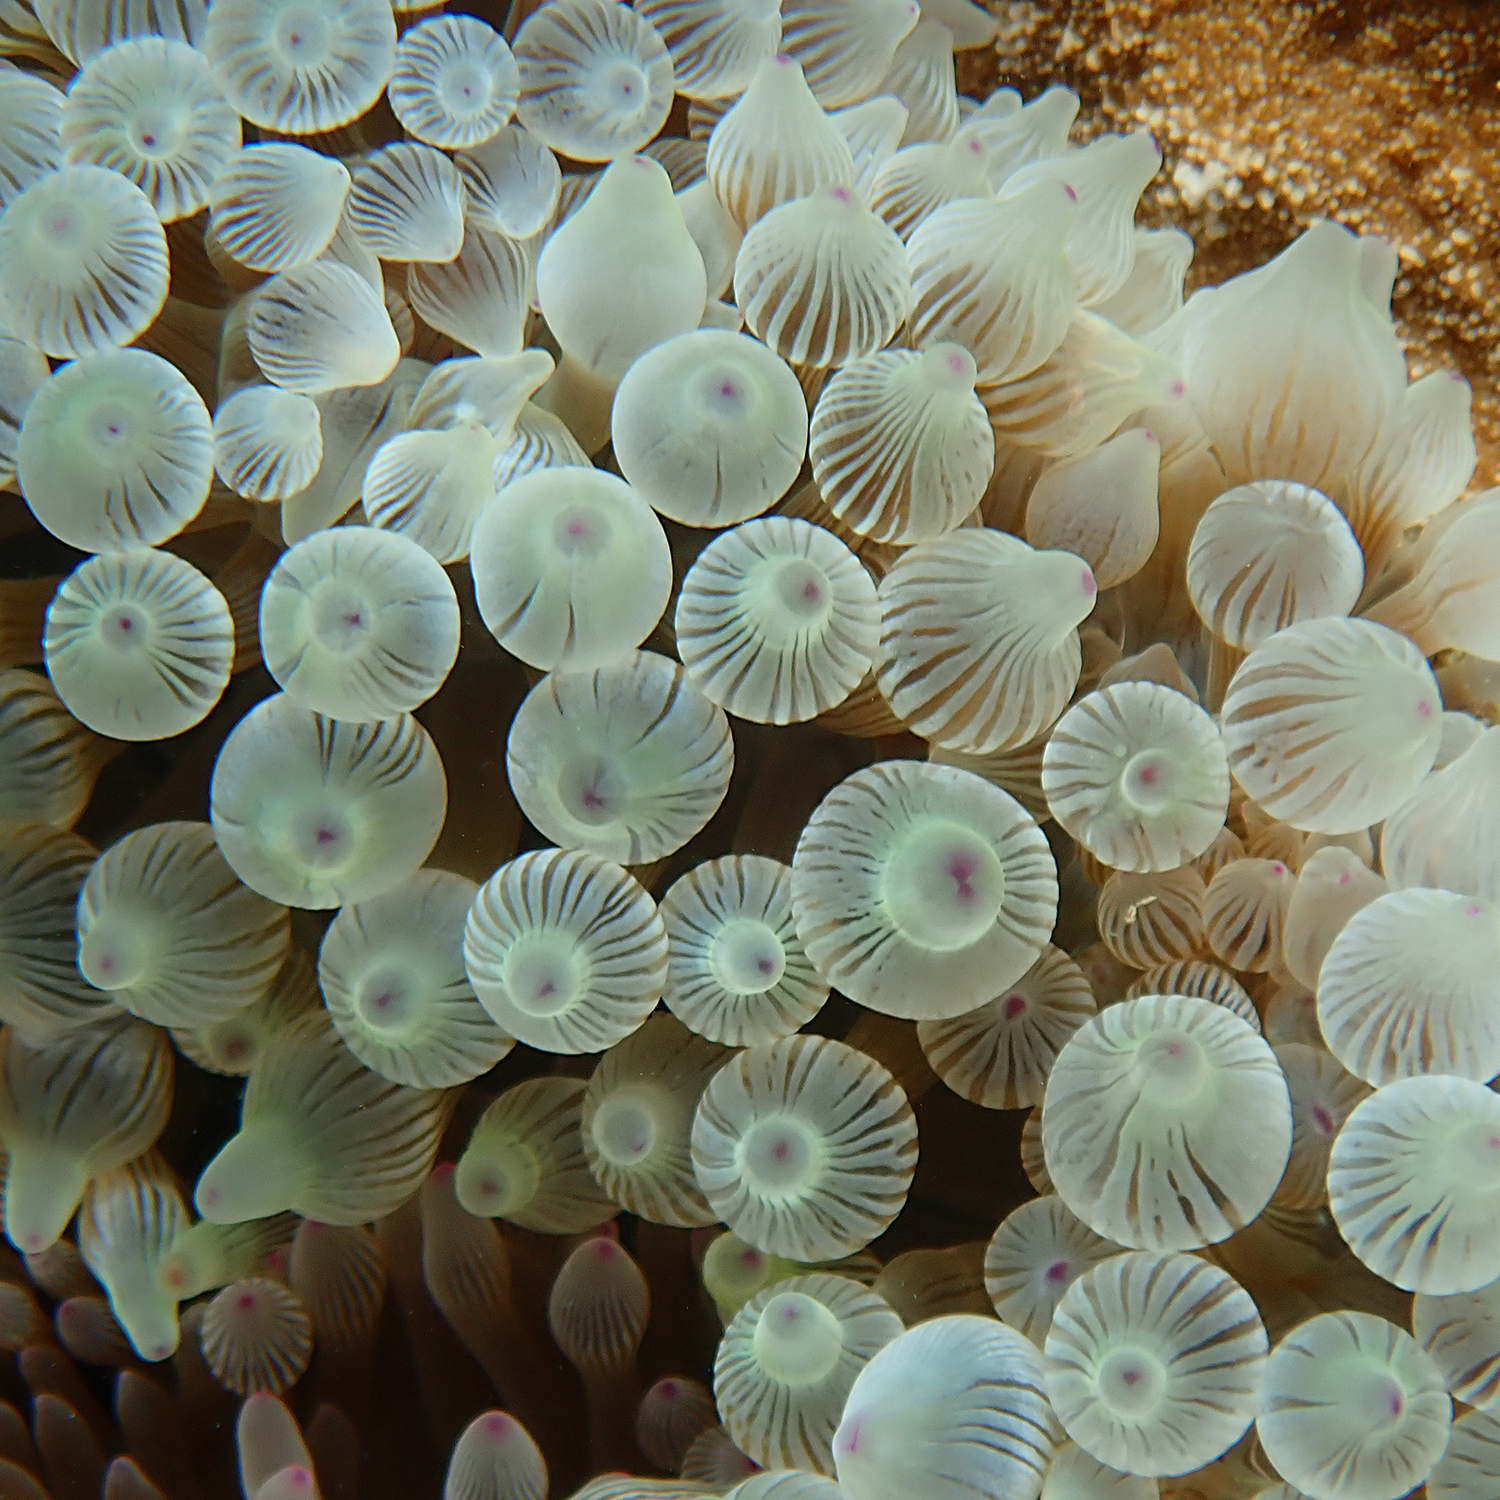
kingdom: Animalia
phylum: Cnidaria
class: Anthozoa
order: Actiniaria
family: Actiniidae
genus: Entacmaea
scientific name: Entacmaea quadricolor
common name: Bulb tentacle sea anemone
